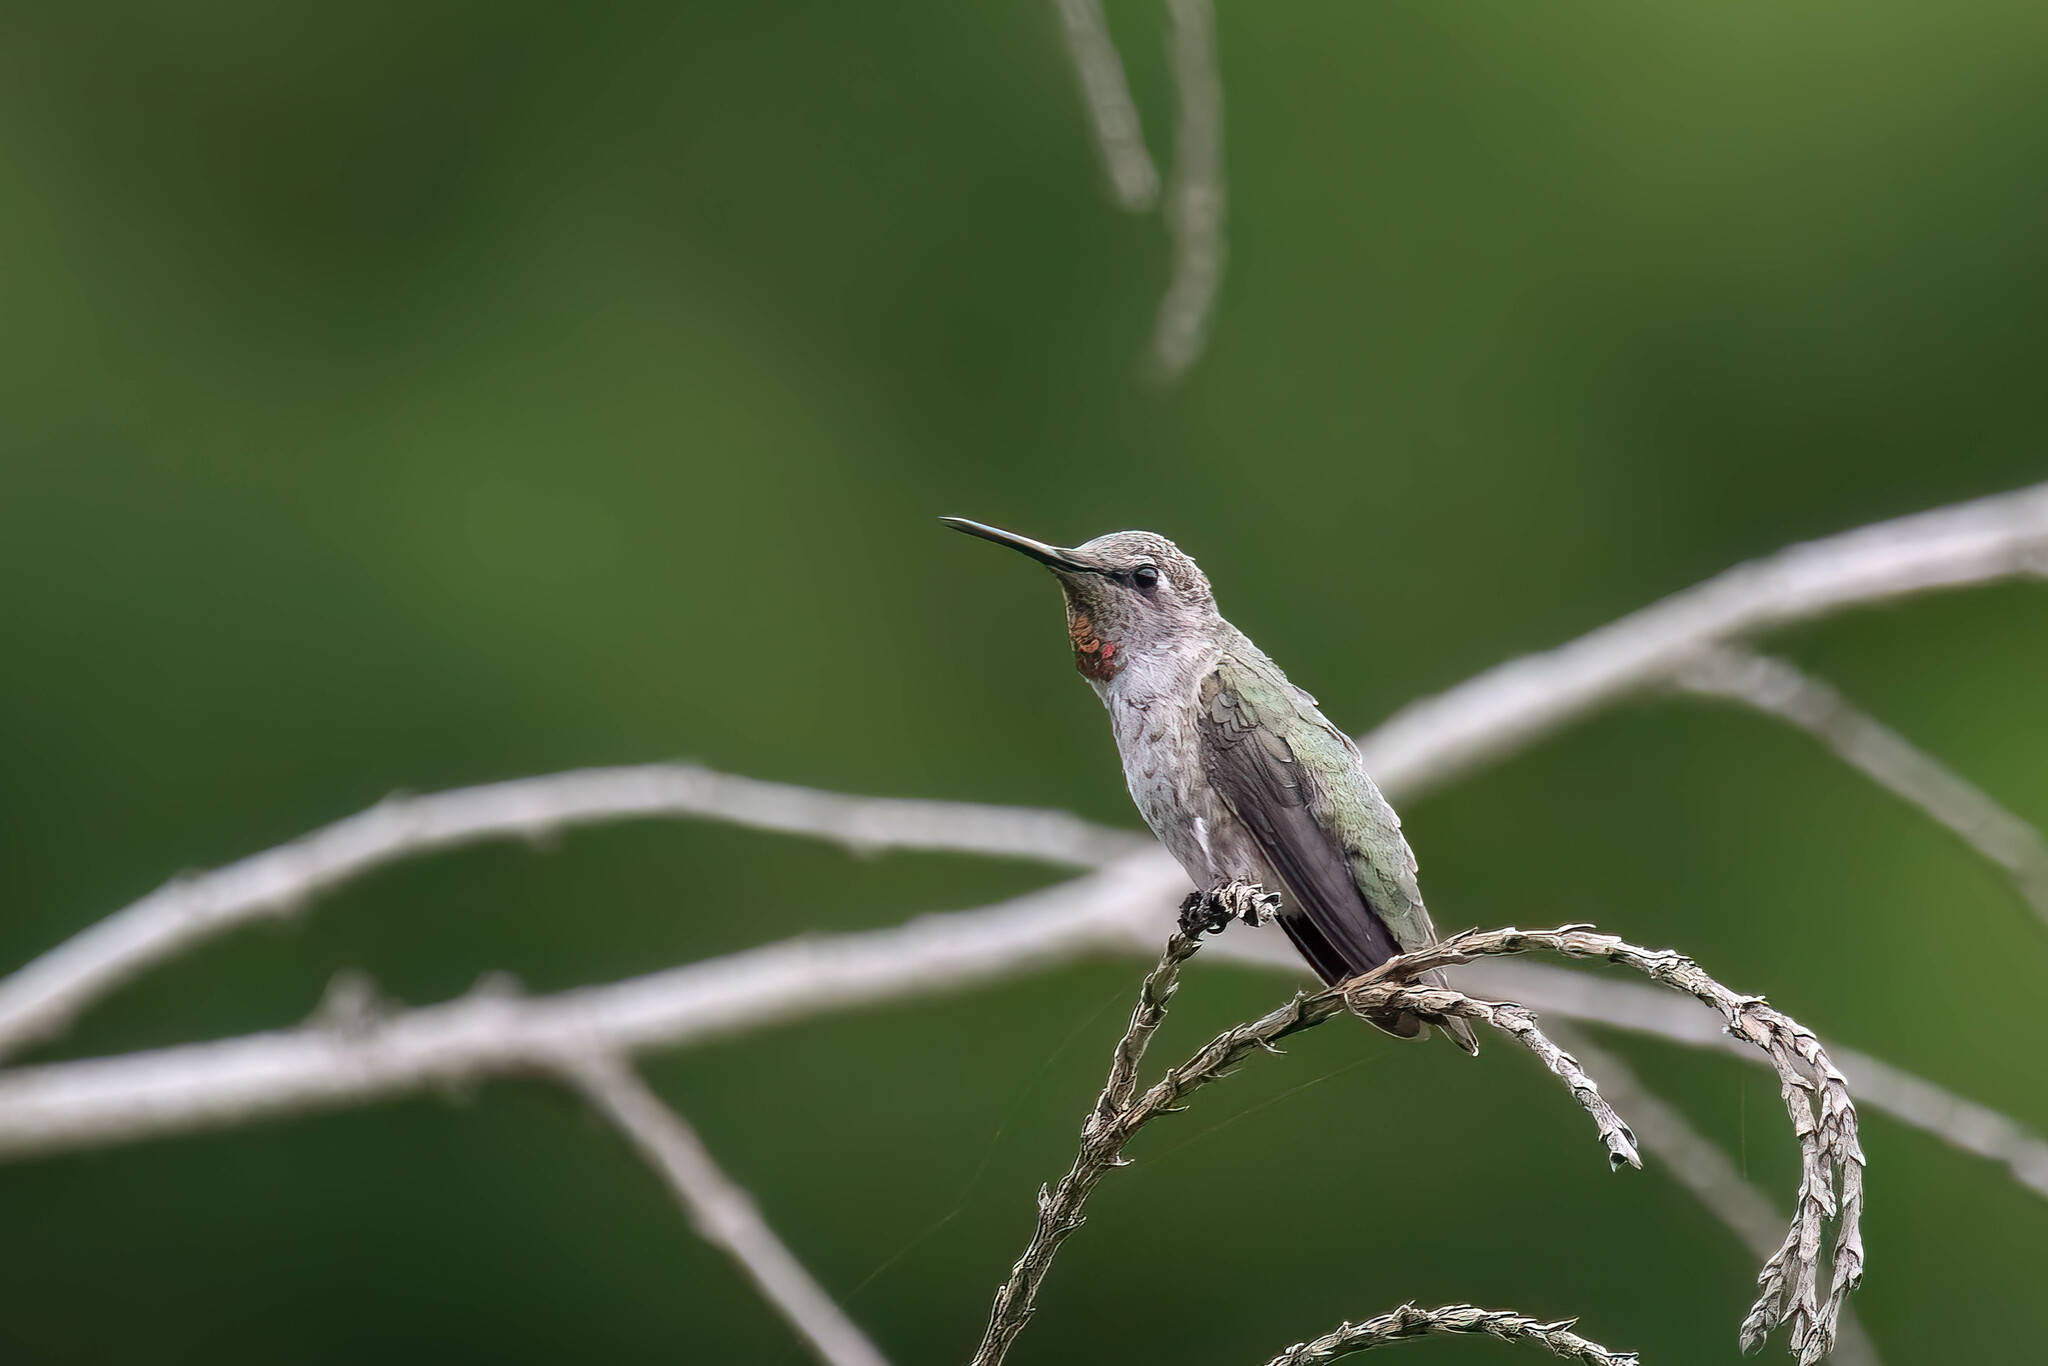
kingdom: Animalia
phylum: Chordata
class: Aves
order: Apodiformes
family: Trochilidae
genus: Calypte
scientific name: Calypte anna
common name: Anna's hummingbird
